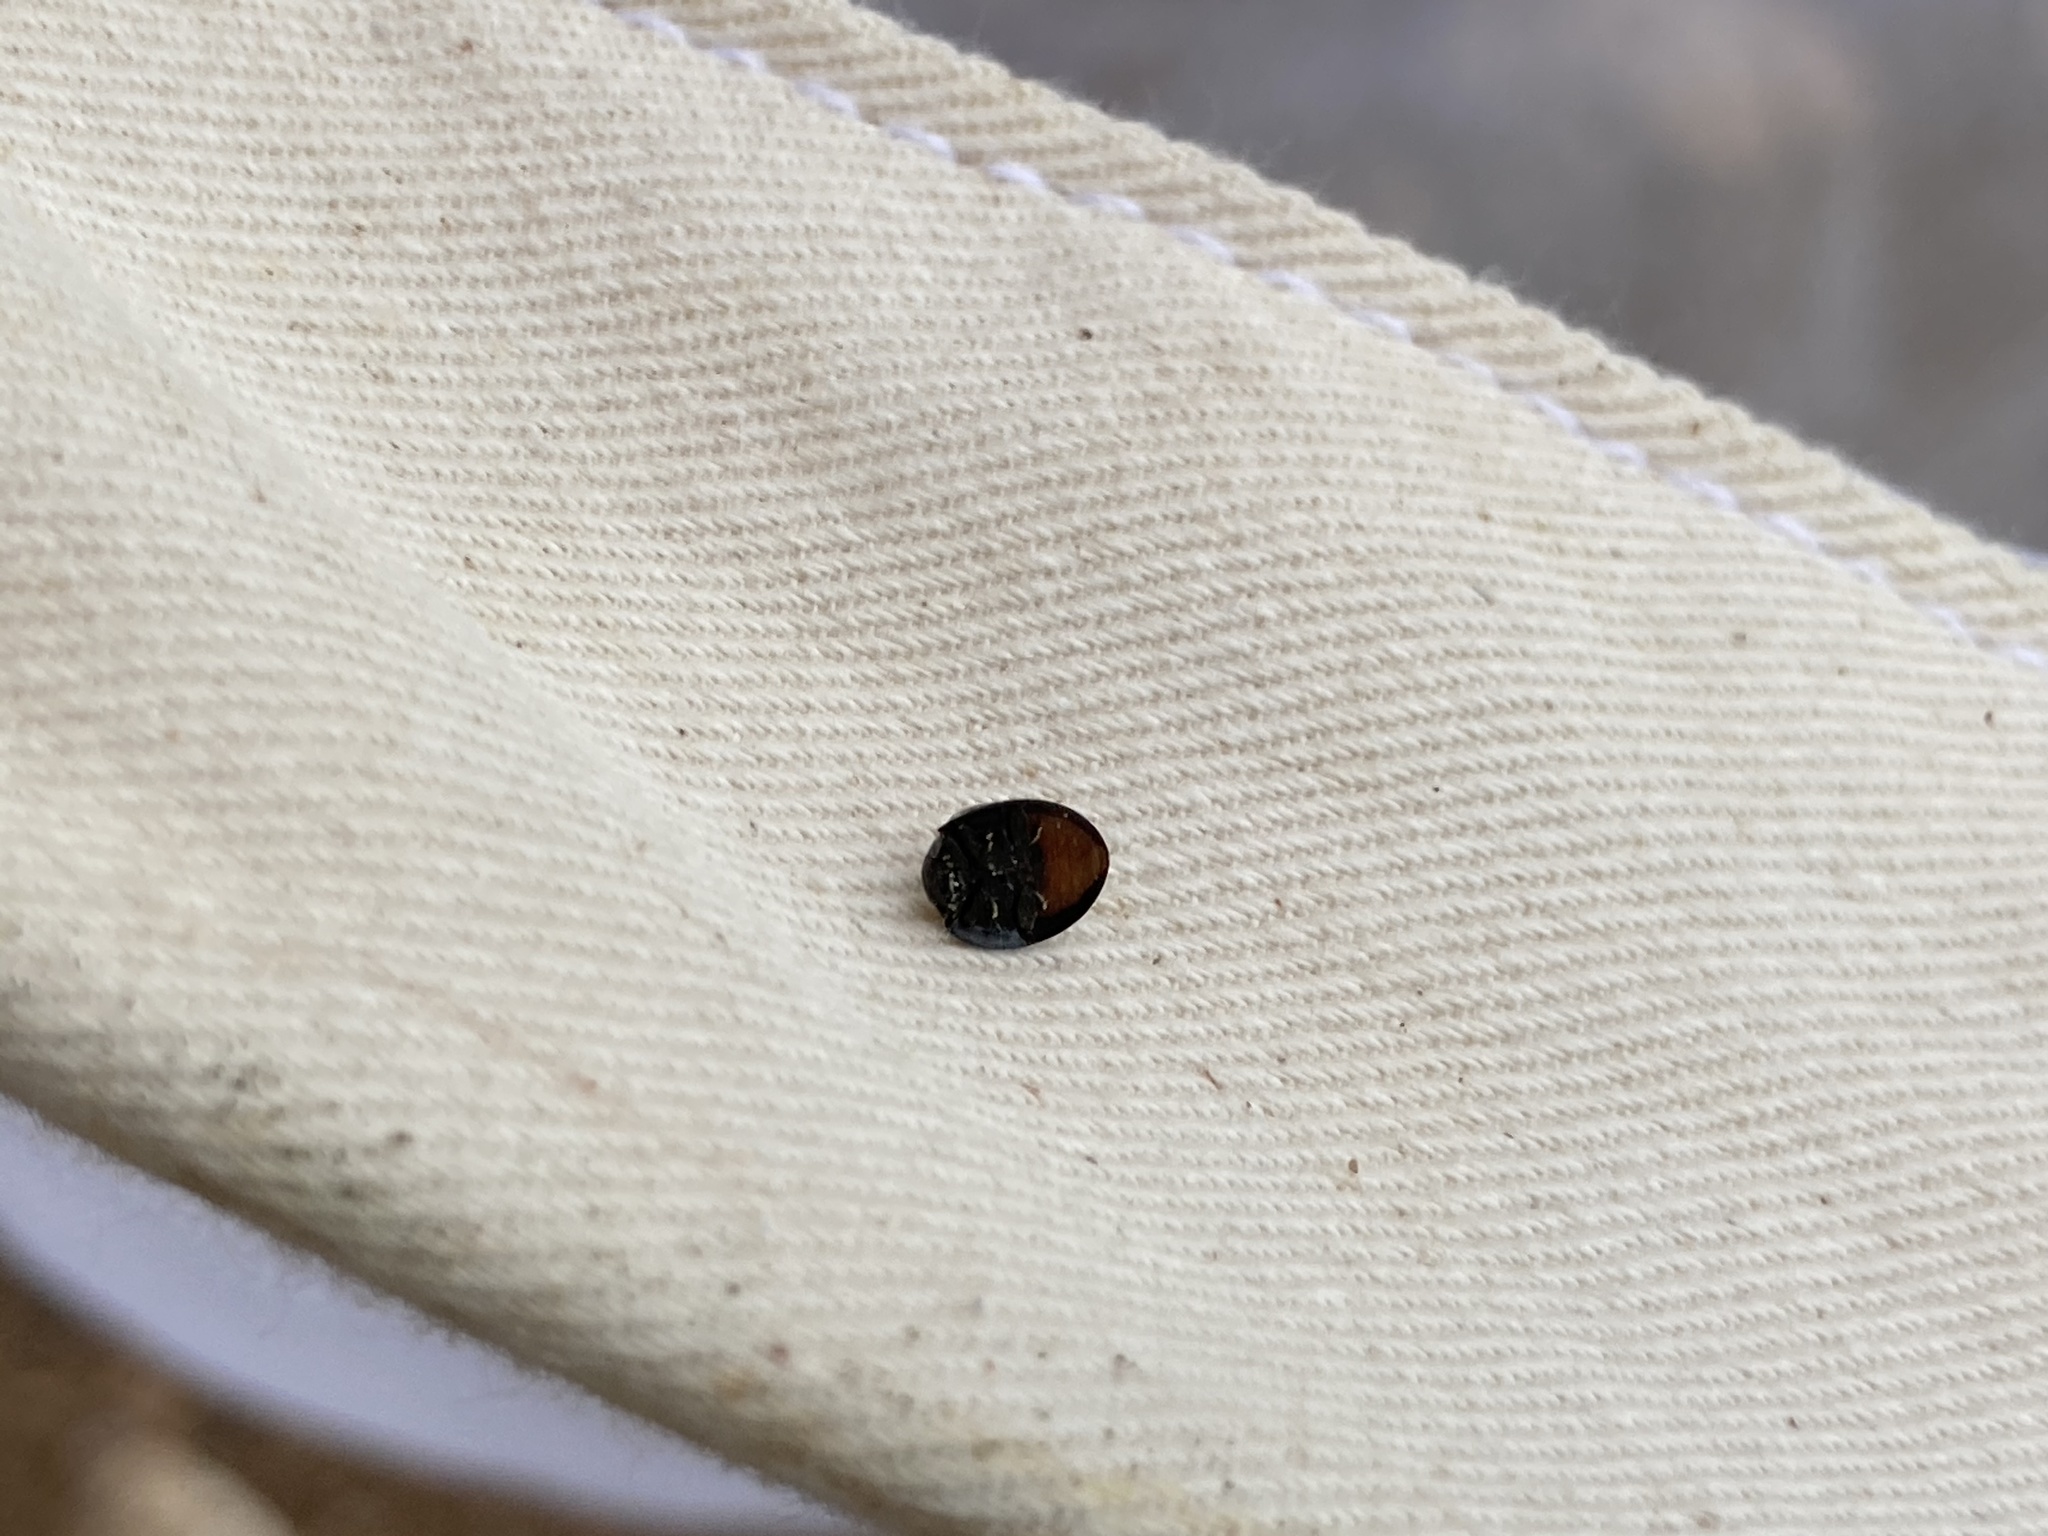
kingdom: Animalia
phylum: Arthropoda
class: Insecta
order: Coleoptera
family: Coccinellidae
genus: Chilocorus
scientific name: Chilocorus stigma
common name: Twicestabbed lady beetle
